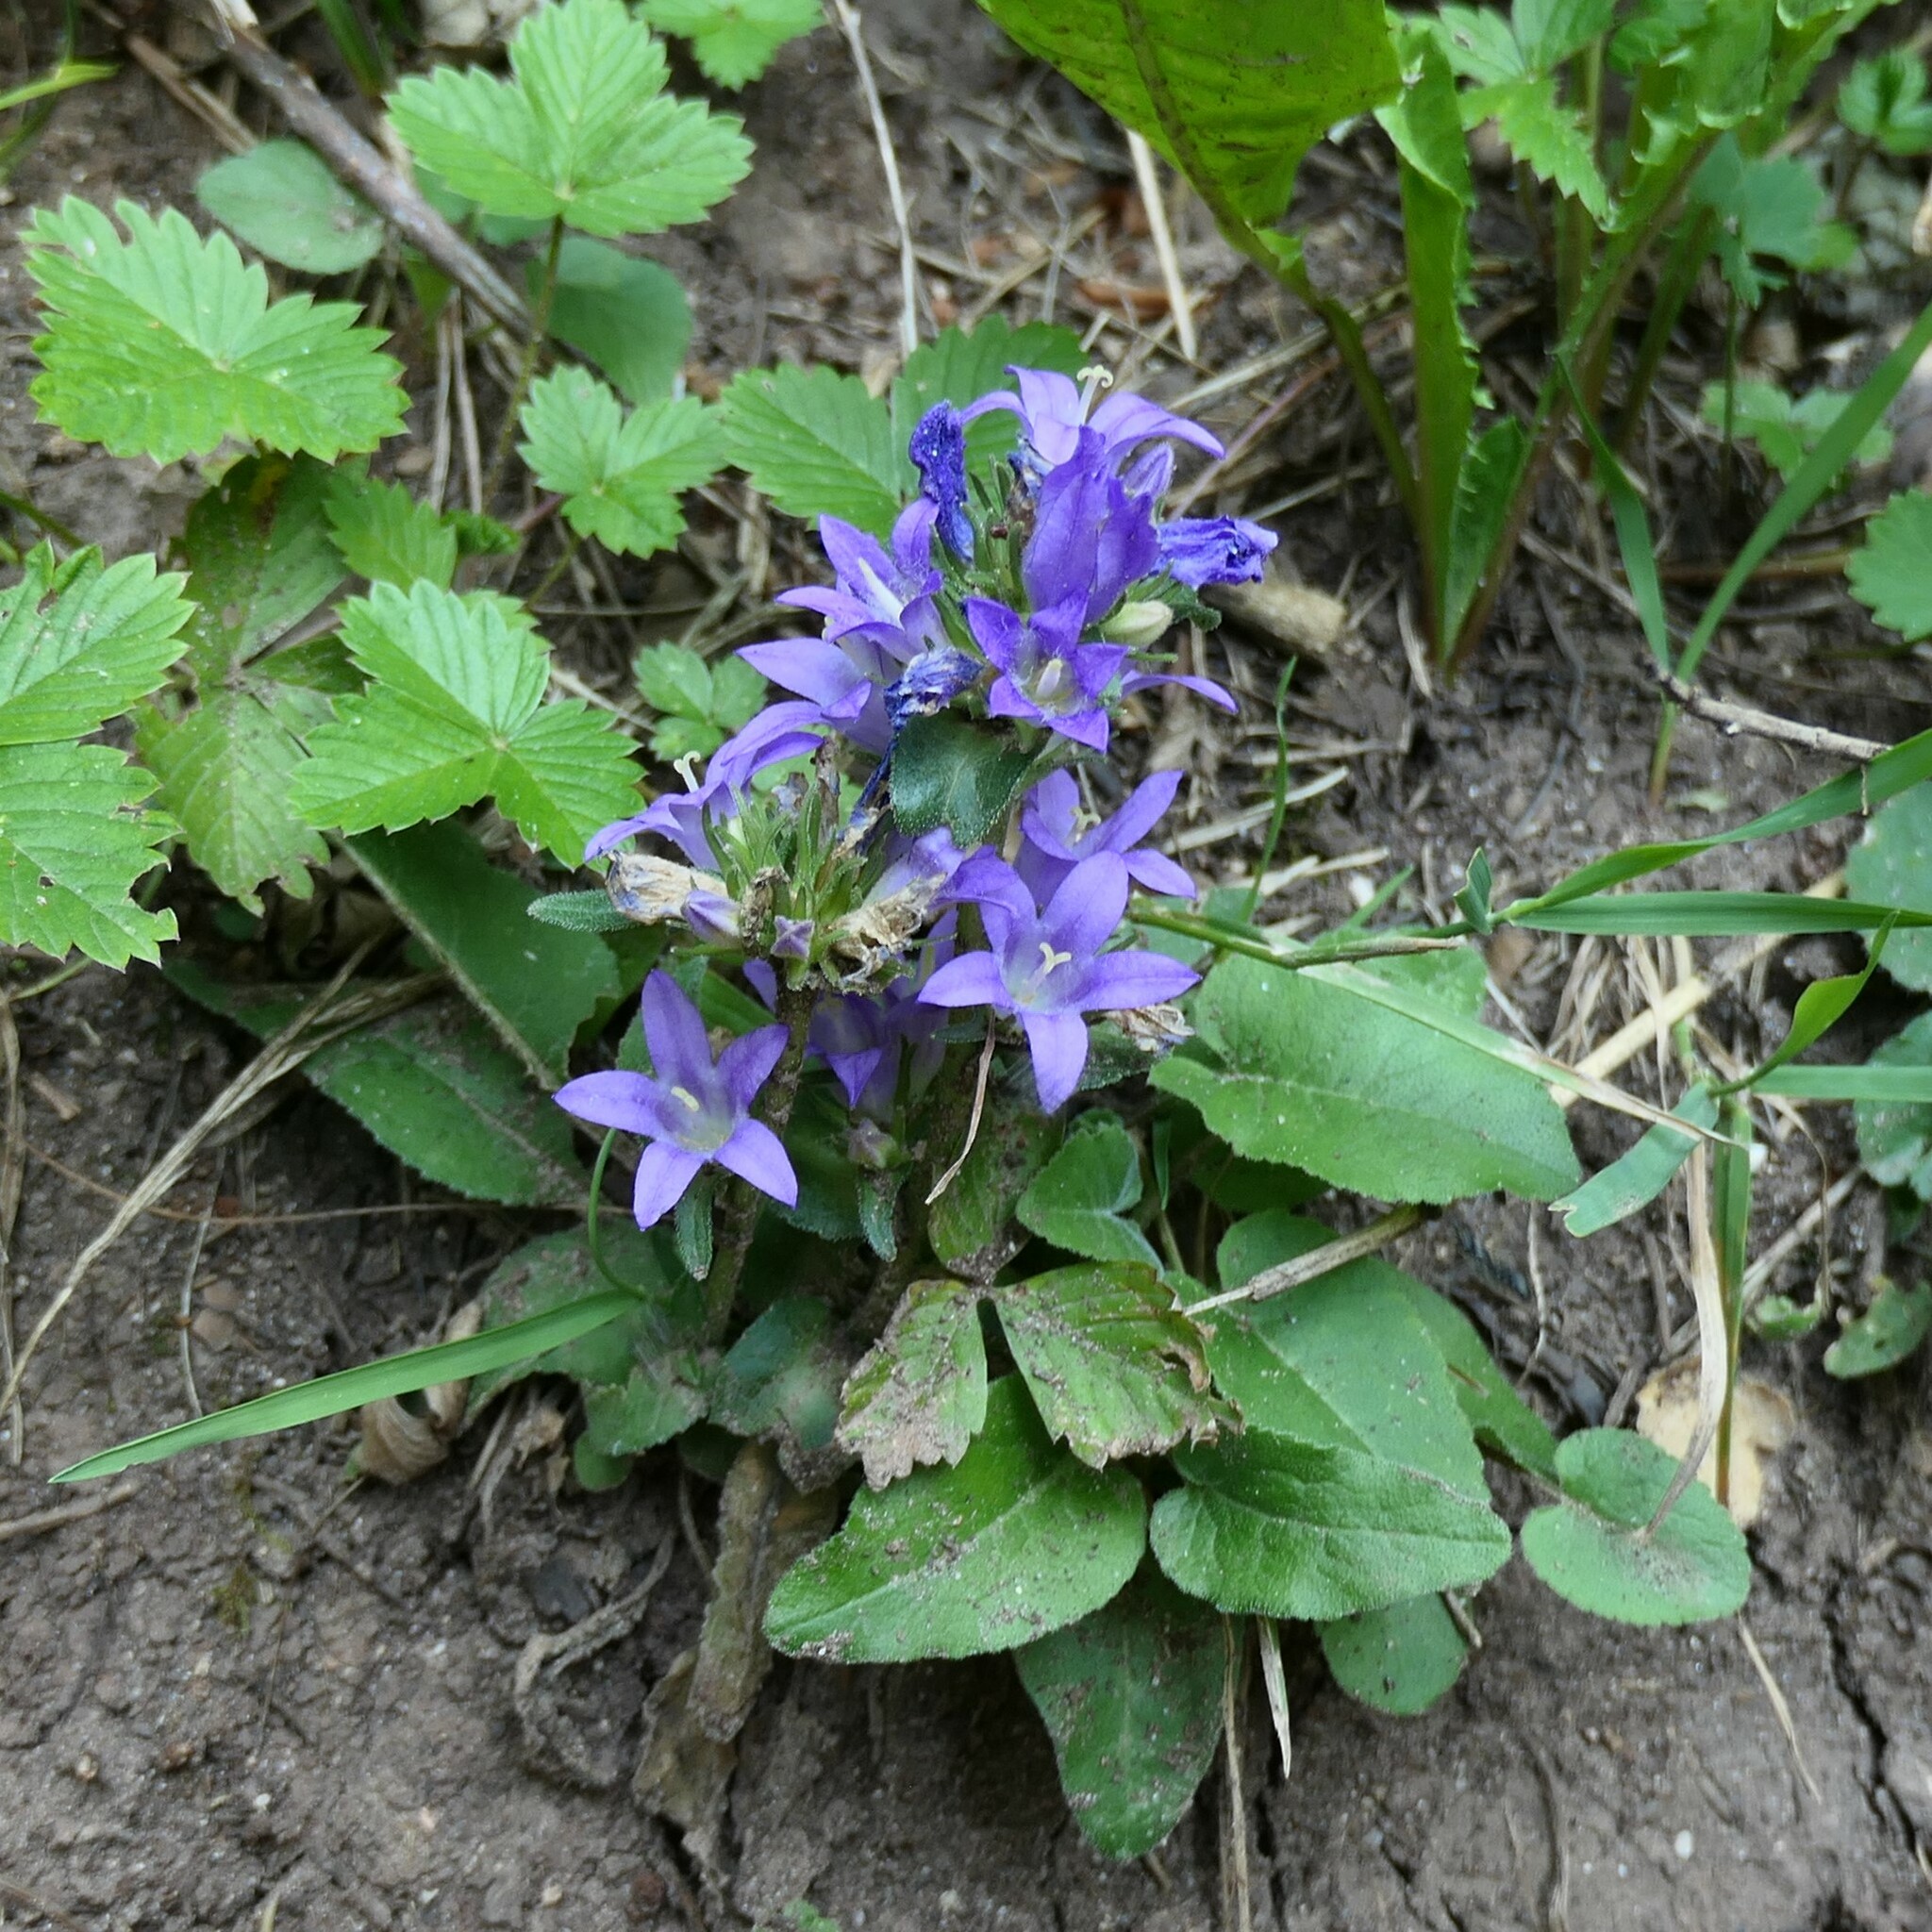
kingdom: Plantae
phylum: Tracheophyta
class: Magnoliopsida
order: Asterales
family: Campanulaceae
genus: Campanula
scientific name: Campanula glomerata
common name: Clustered bellflower
